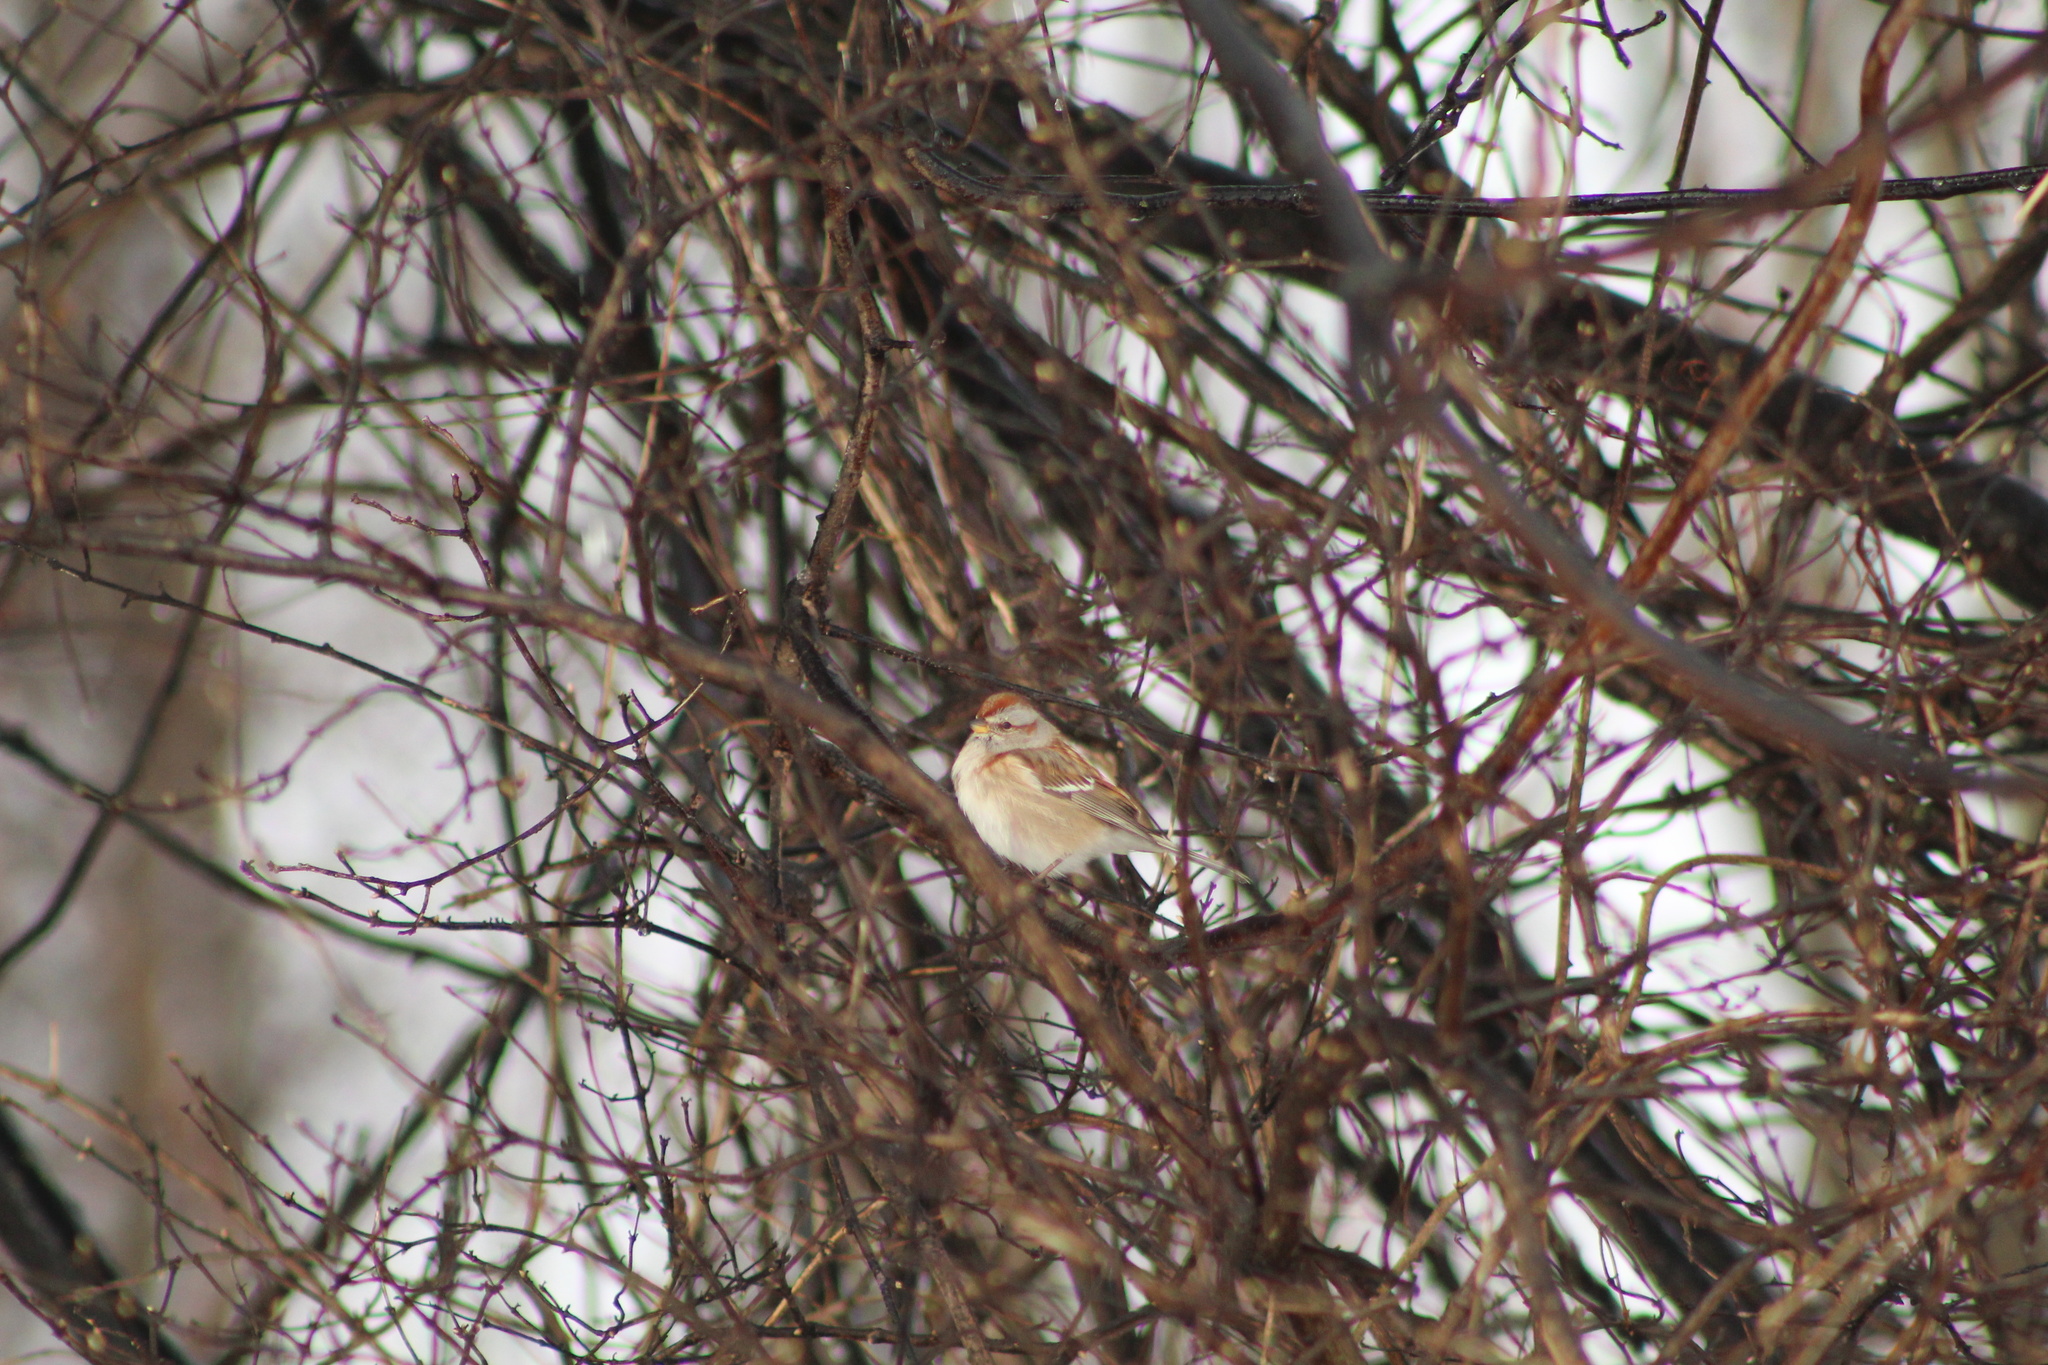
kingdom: Animalia
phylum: Chordata
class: Aves
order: Passeriformes
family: Passerellidae
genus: Spizelloides
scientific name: Spizelloides arborea
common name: American tree sparrow
